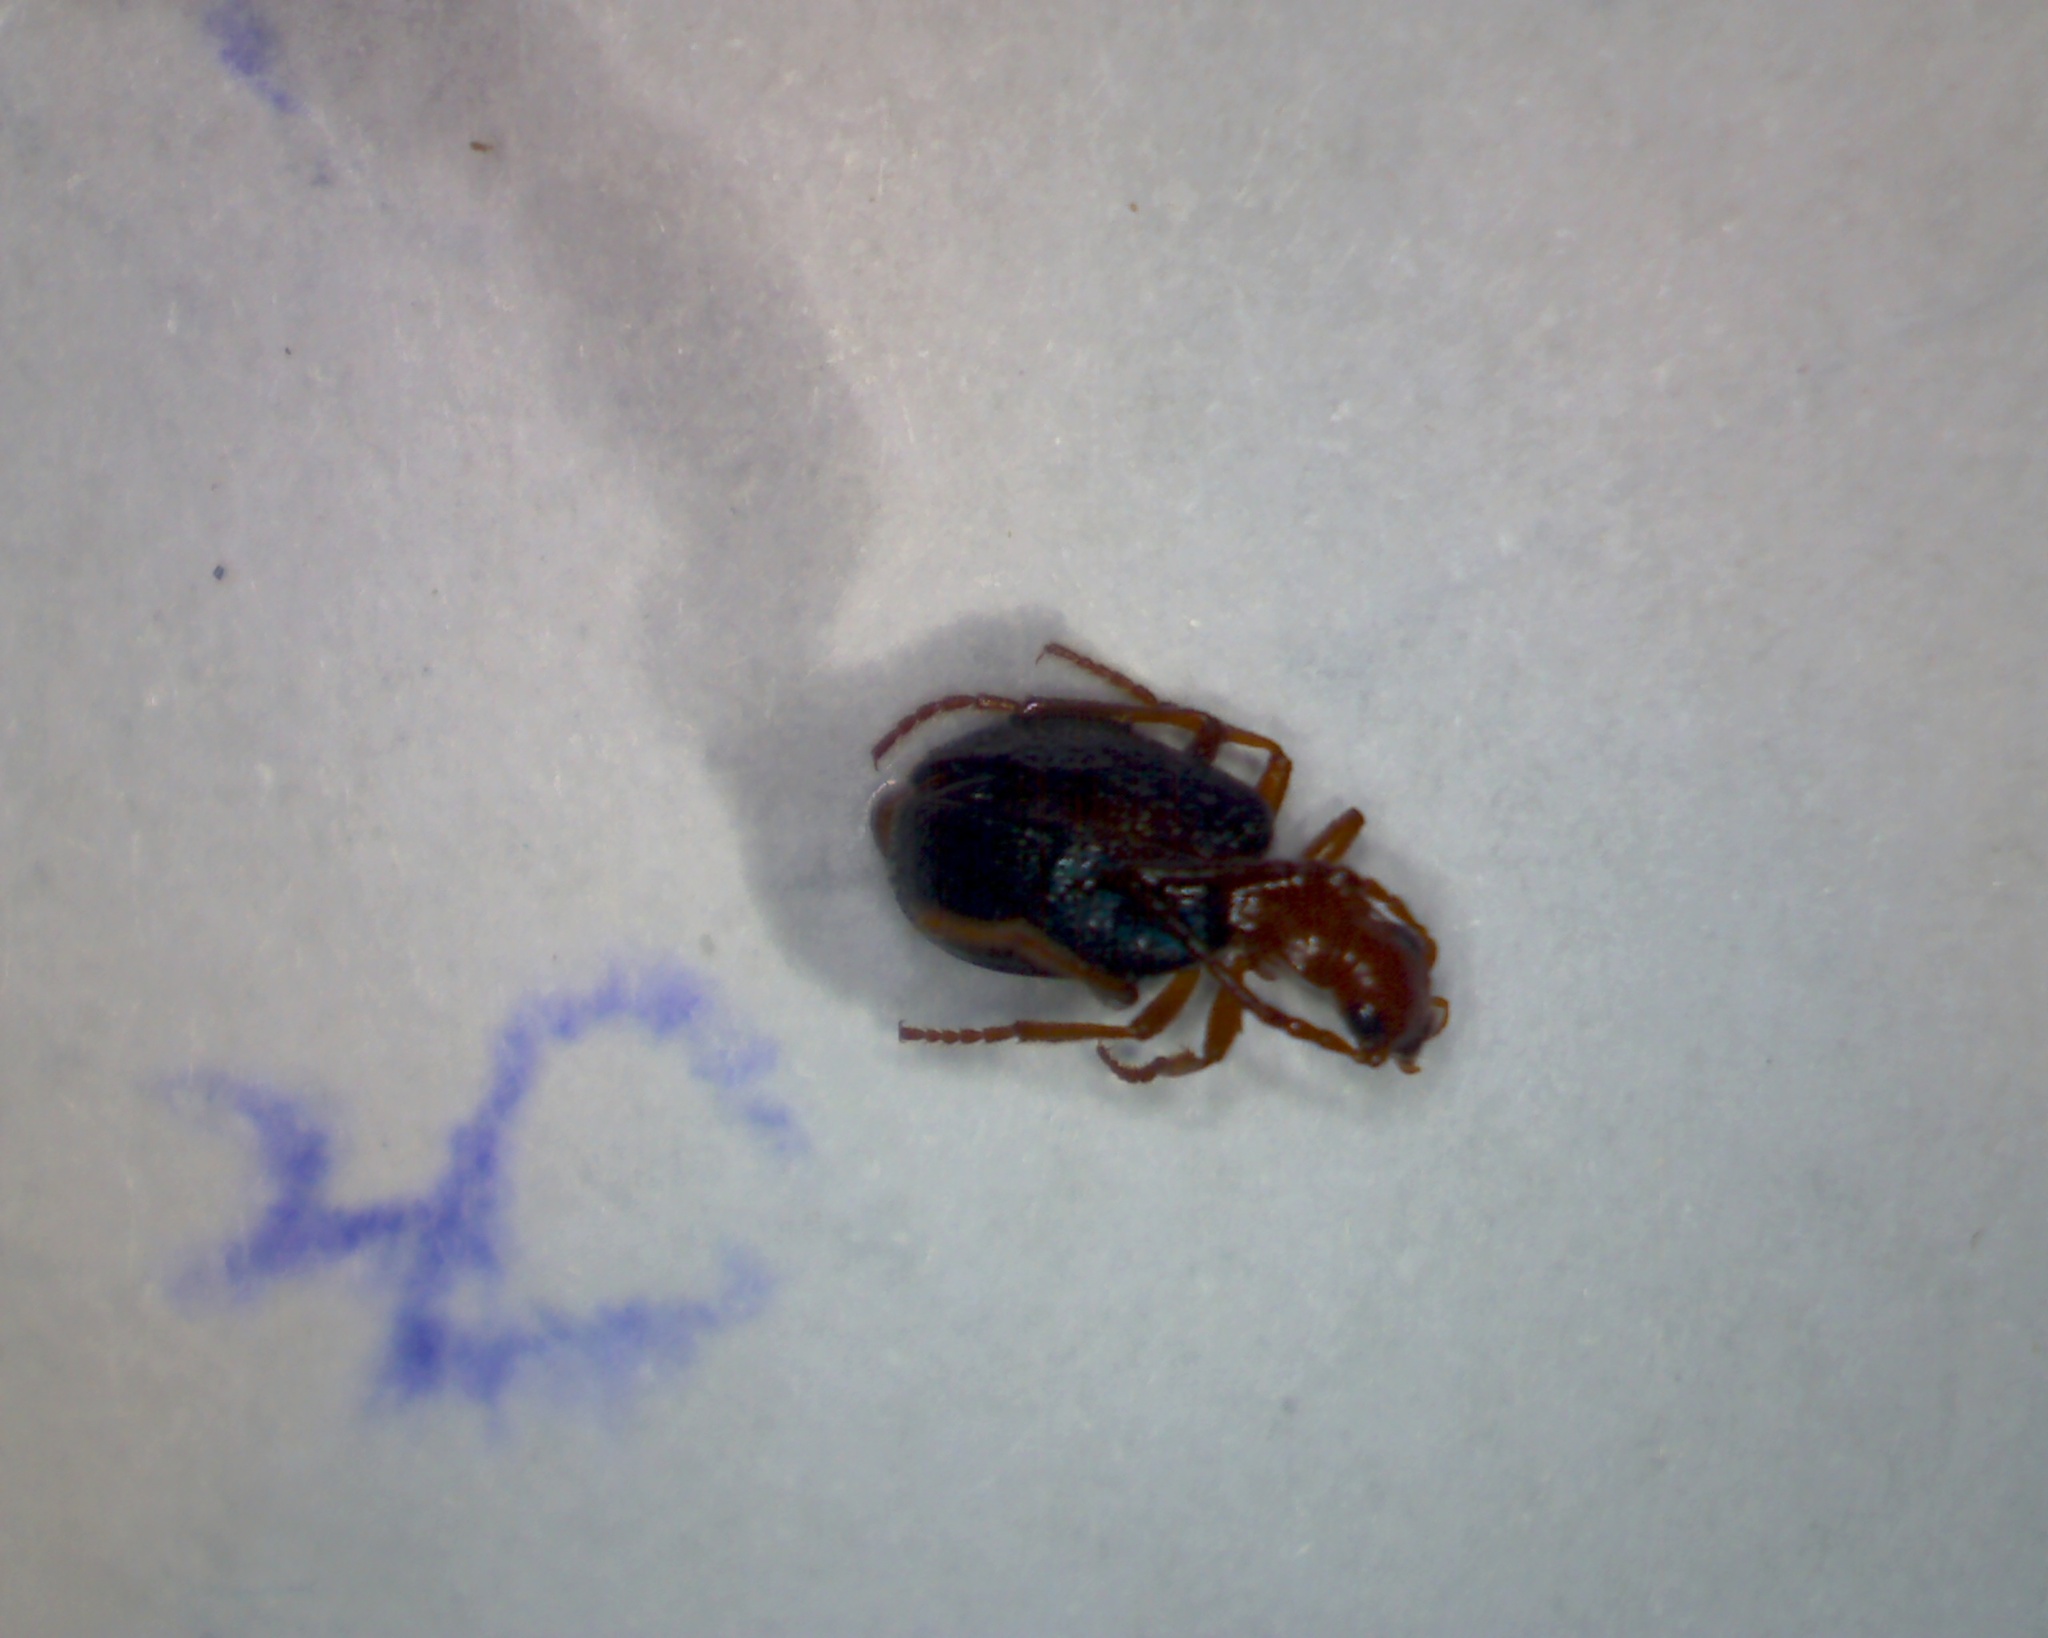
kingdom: Animalia
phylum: Arthropoda
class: Insecta
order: Coleoptera
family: Carabidae
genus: Brachinus
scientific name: Brachinus sclopeta
